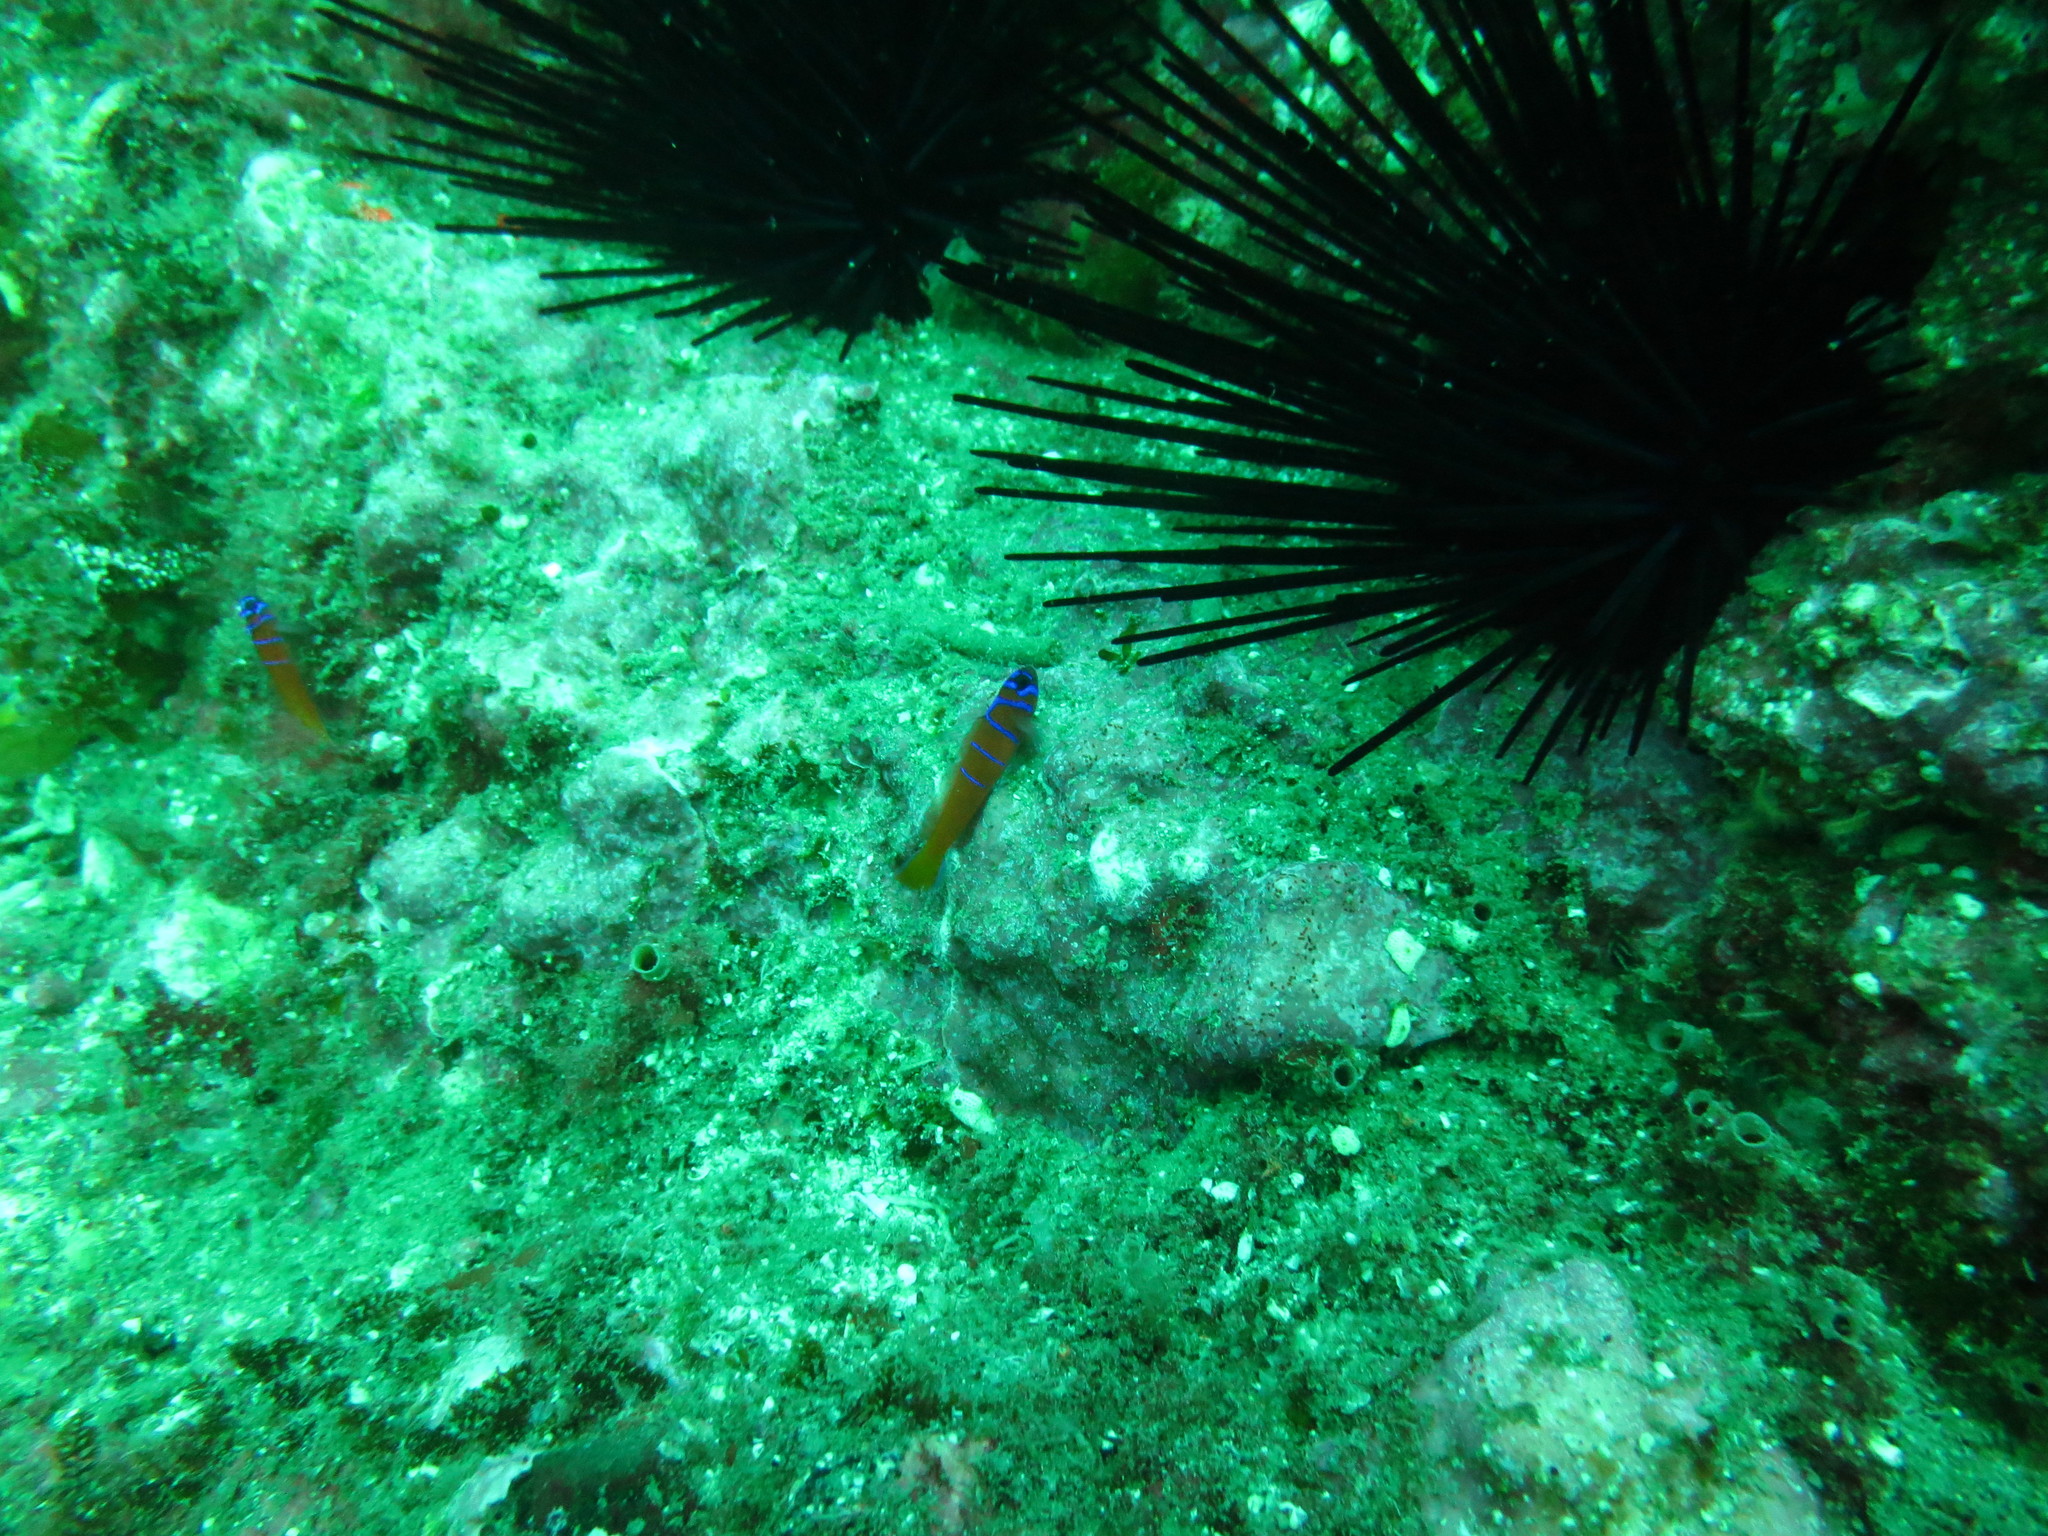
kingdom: Animalia
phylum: Chordata
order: Perciformes
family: Gobiidae
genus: Lythrypnus
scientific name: Lythrypnus dalli
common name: Bluebanded goby
